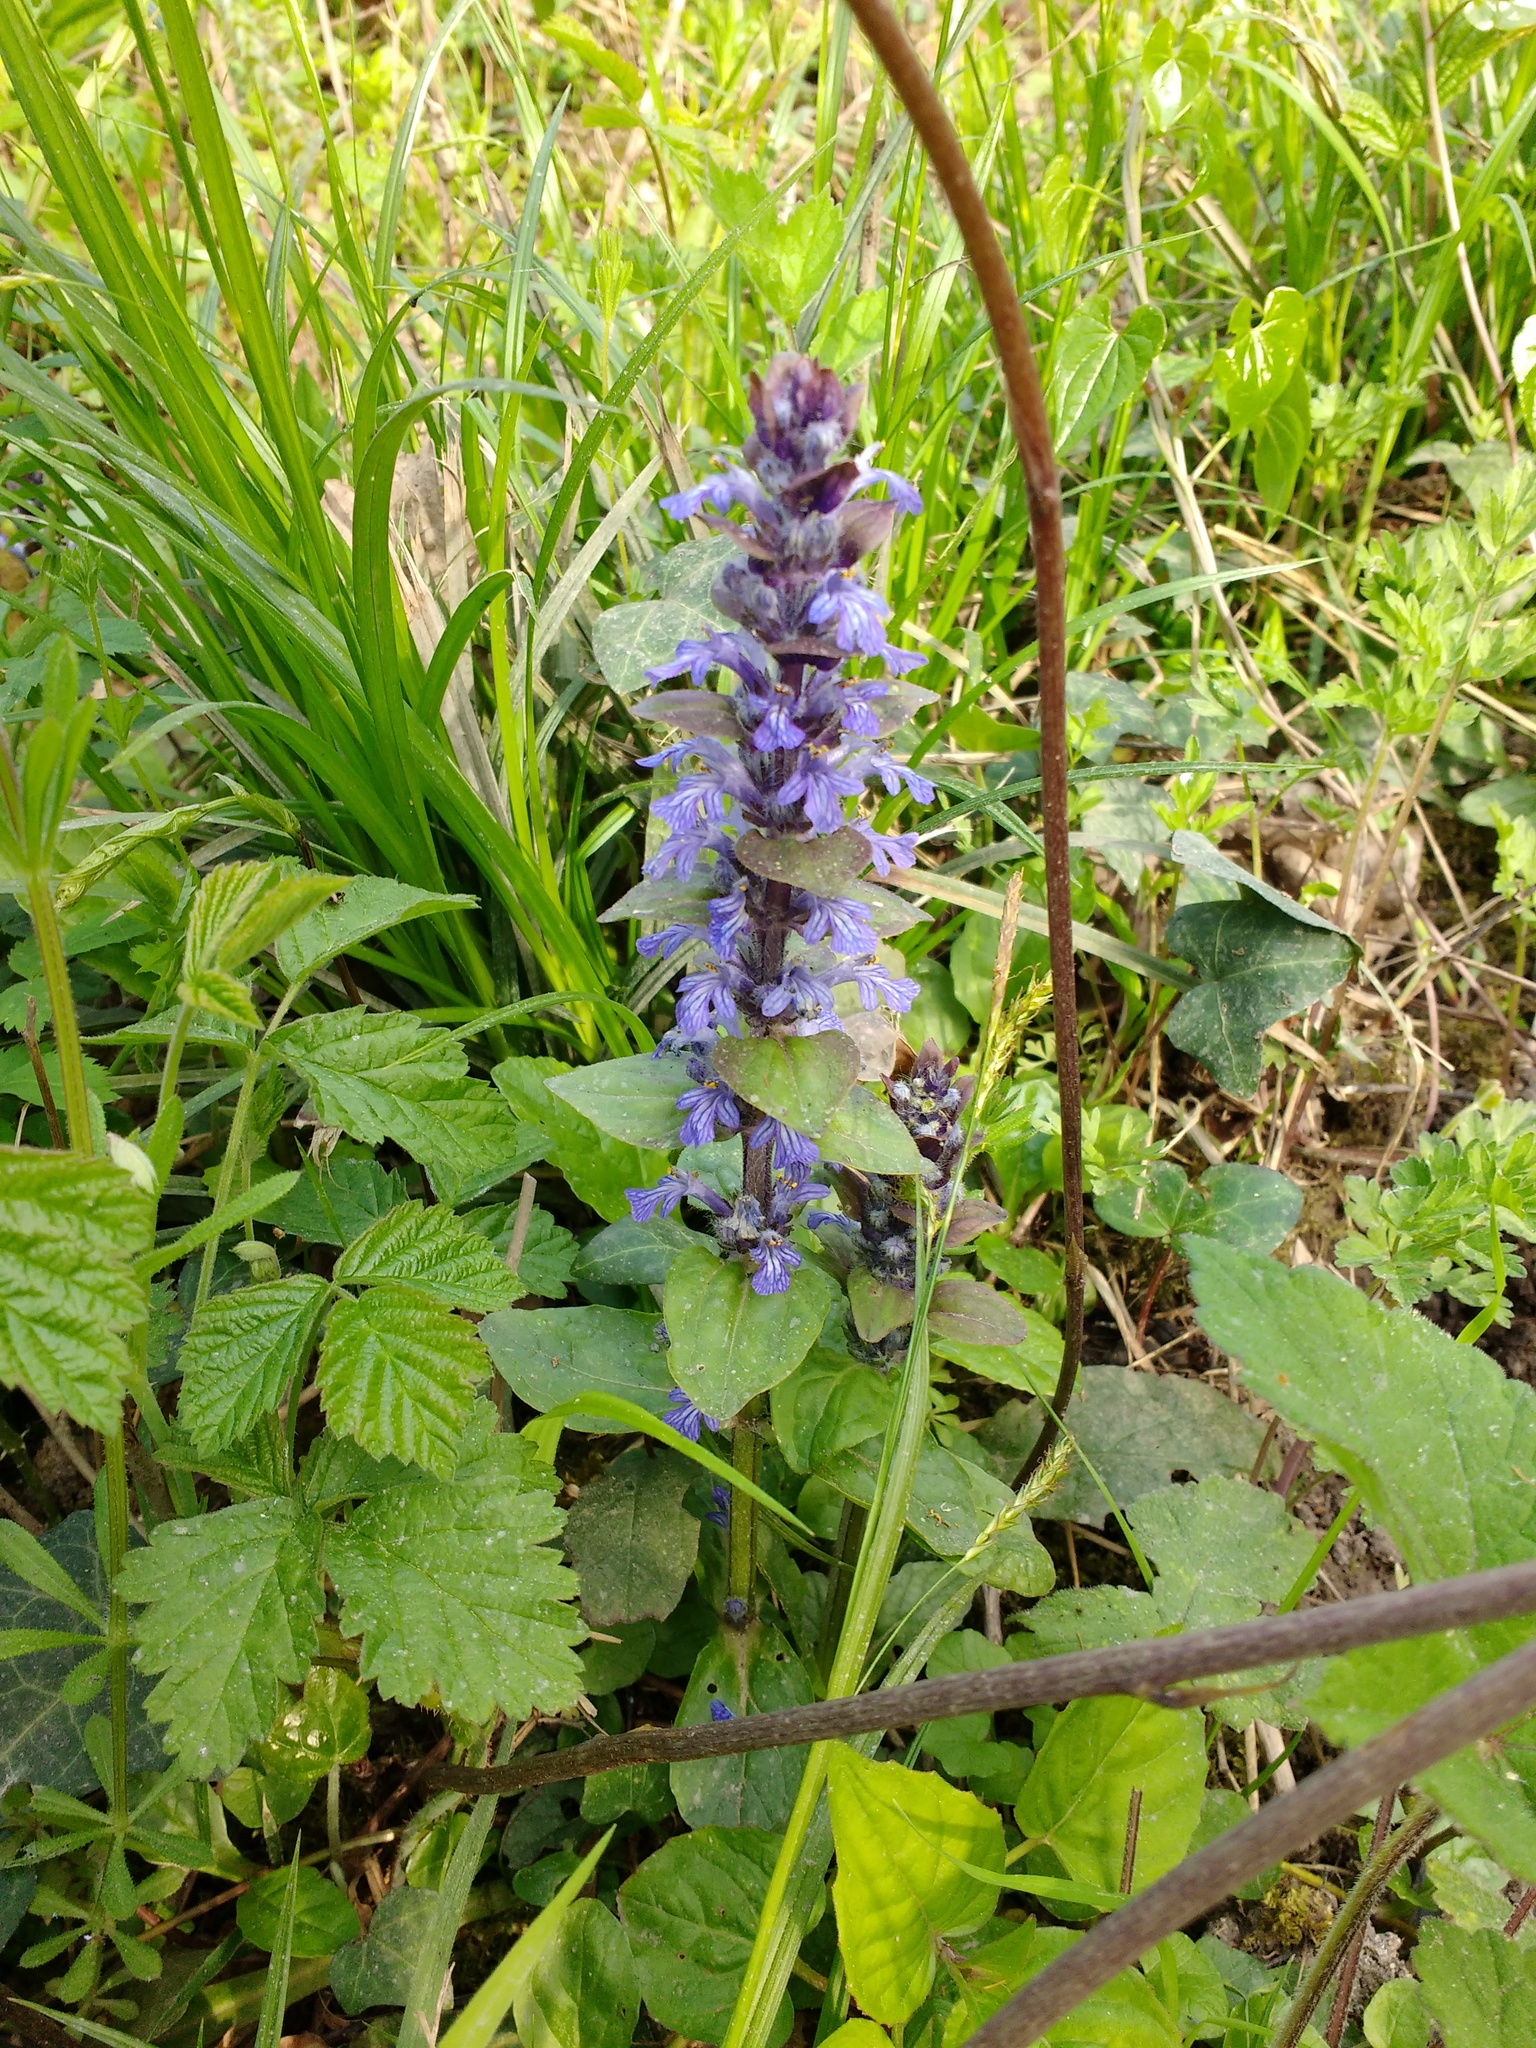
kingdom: Plantae
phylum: Tracheophyta
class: Magnoliopsida
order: Lamiales
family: Lamiaceae
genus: Ajuga
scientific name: Ajuga reptans
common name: Bugle
